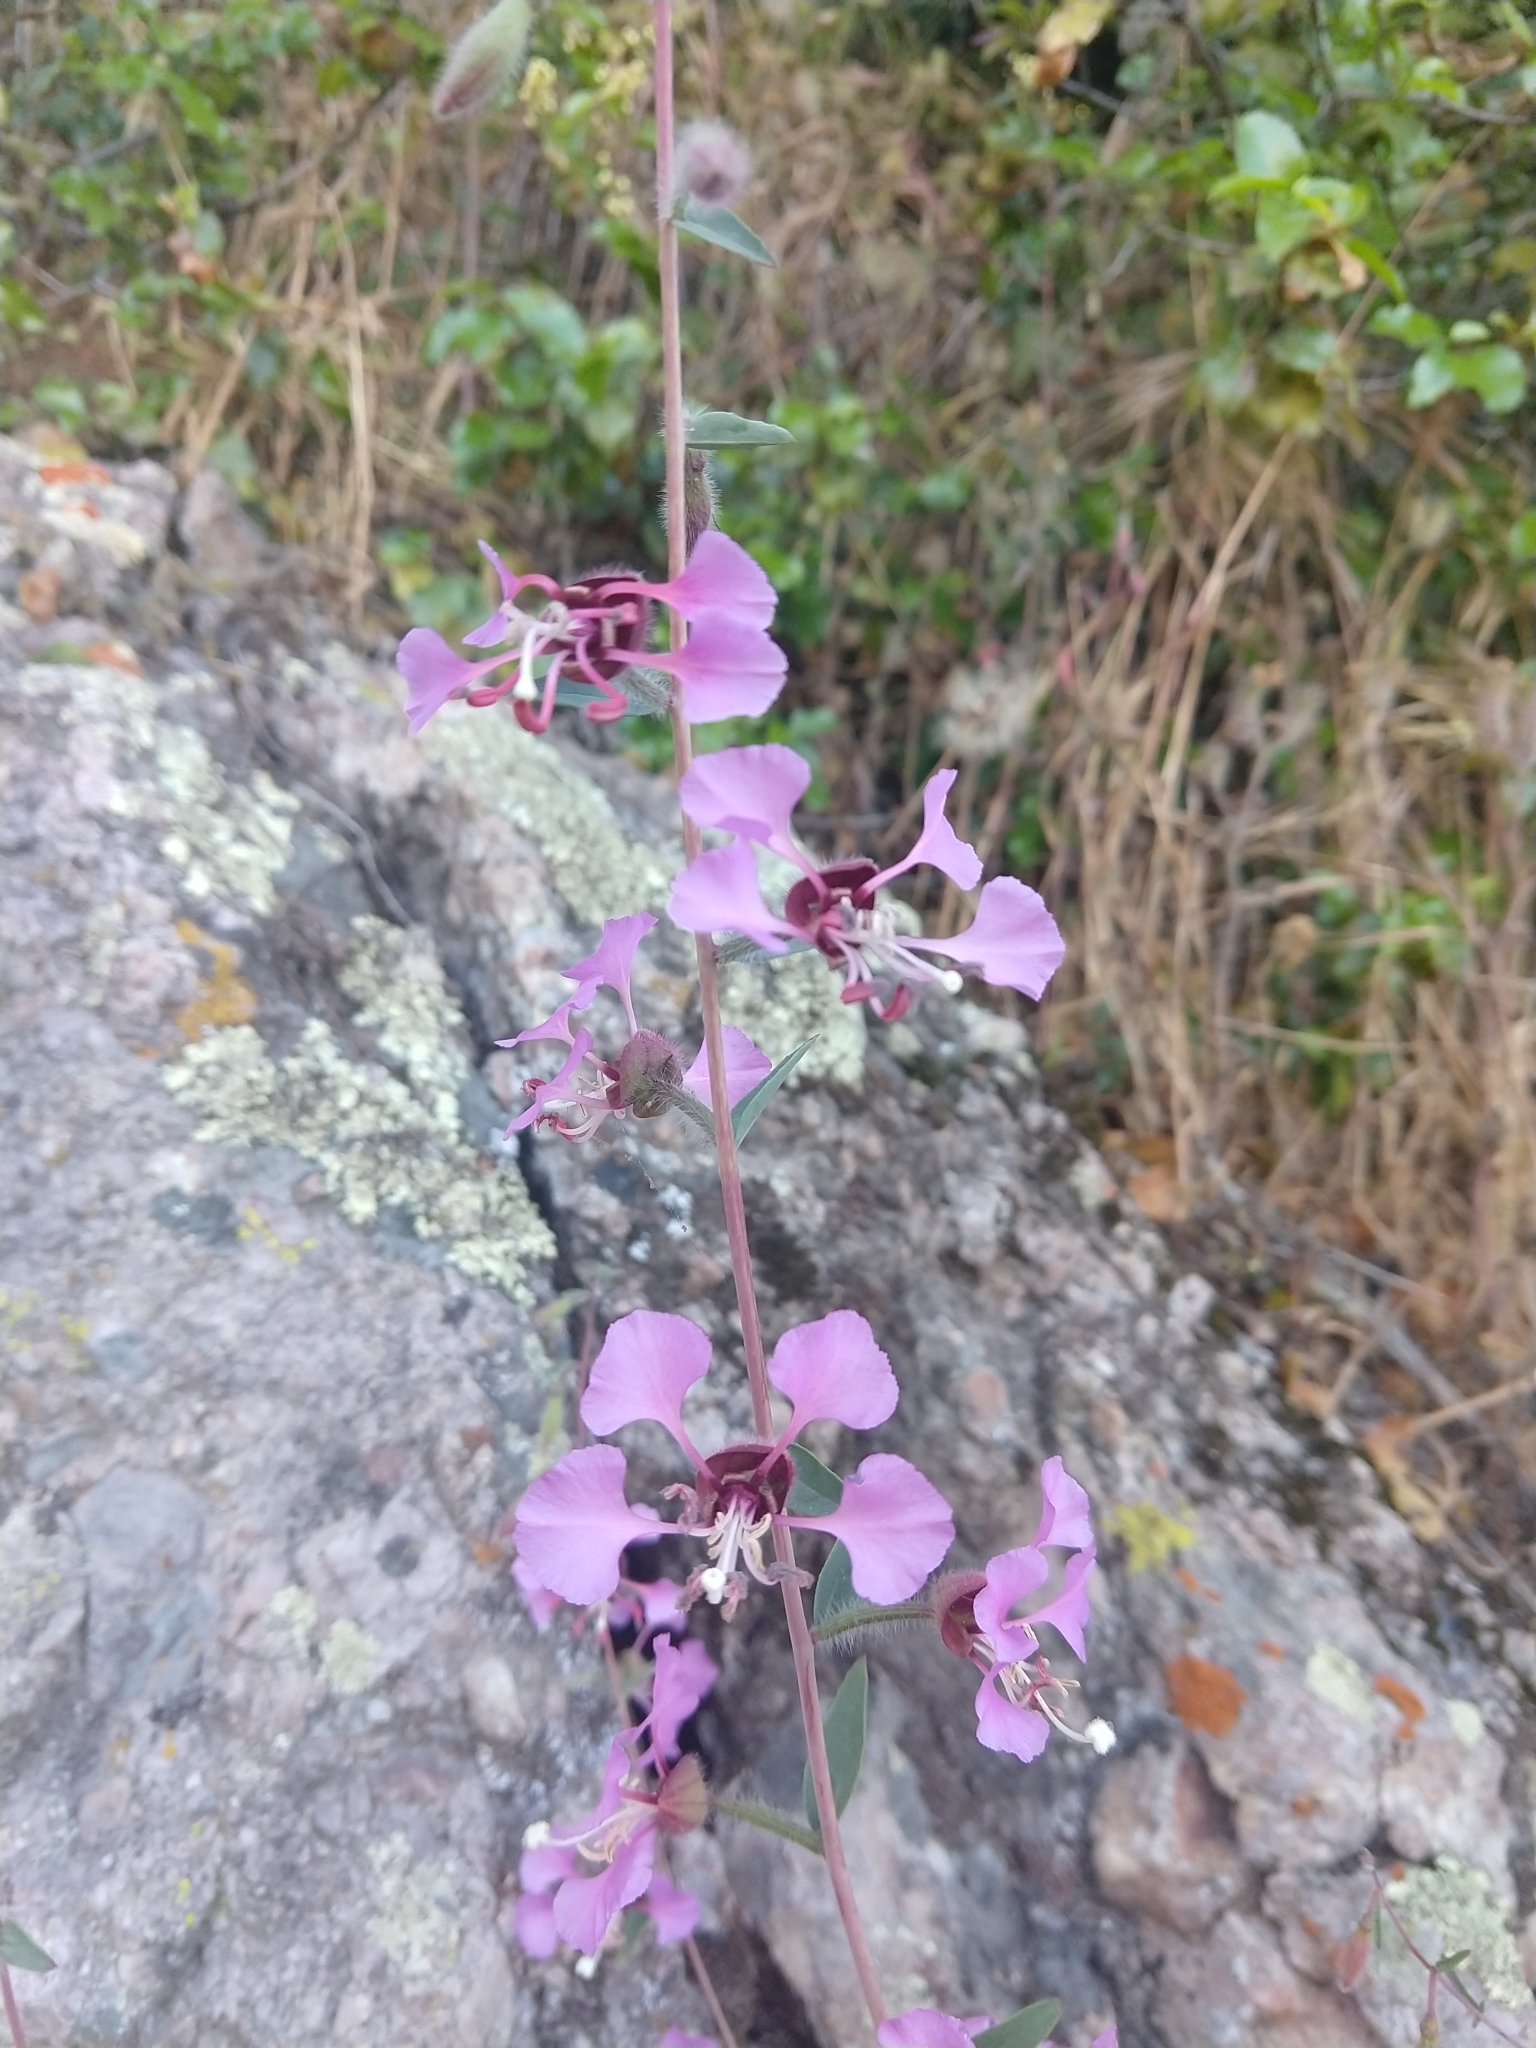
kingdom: Plantae
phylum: Tracheophyta
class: Magnoliopsida
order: Myrtales
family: Onagraceae
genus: Clarkia
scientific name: Clarkia unguiculata
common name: Clarkia
